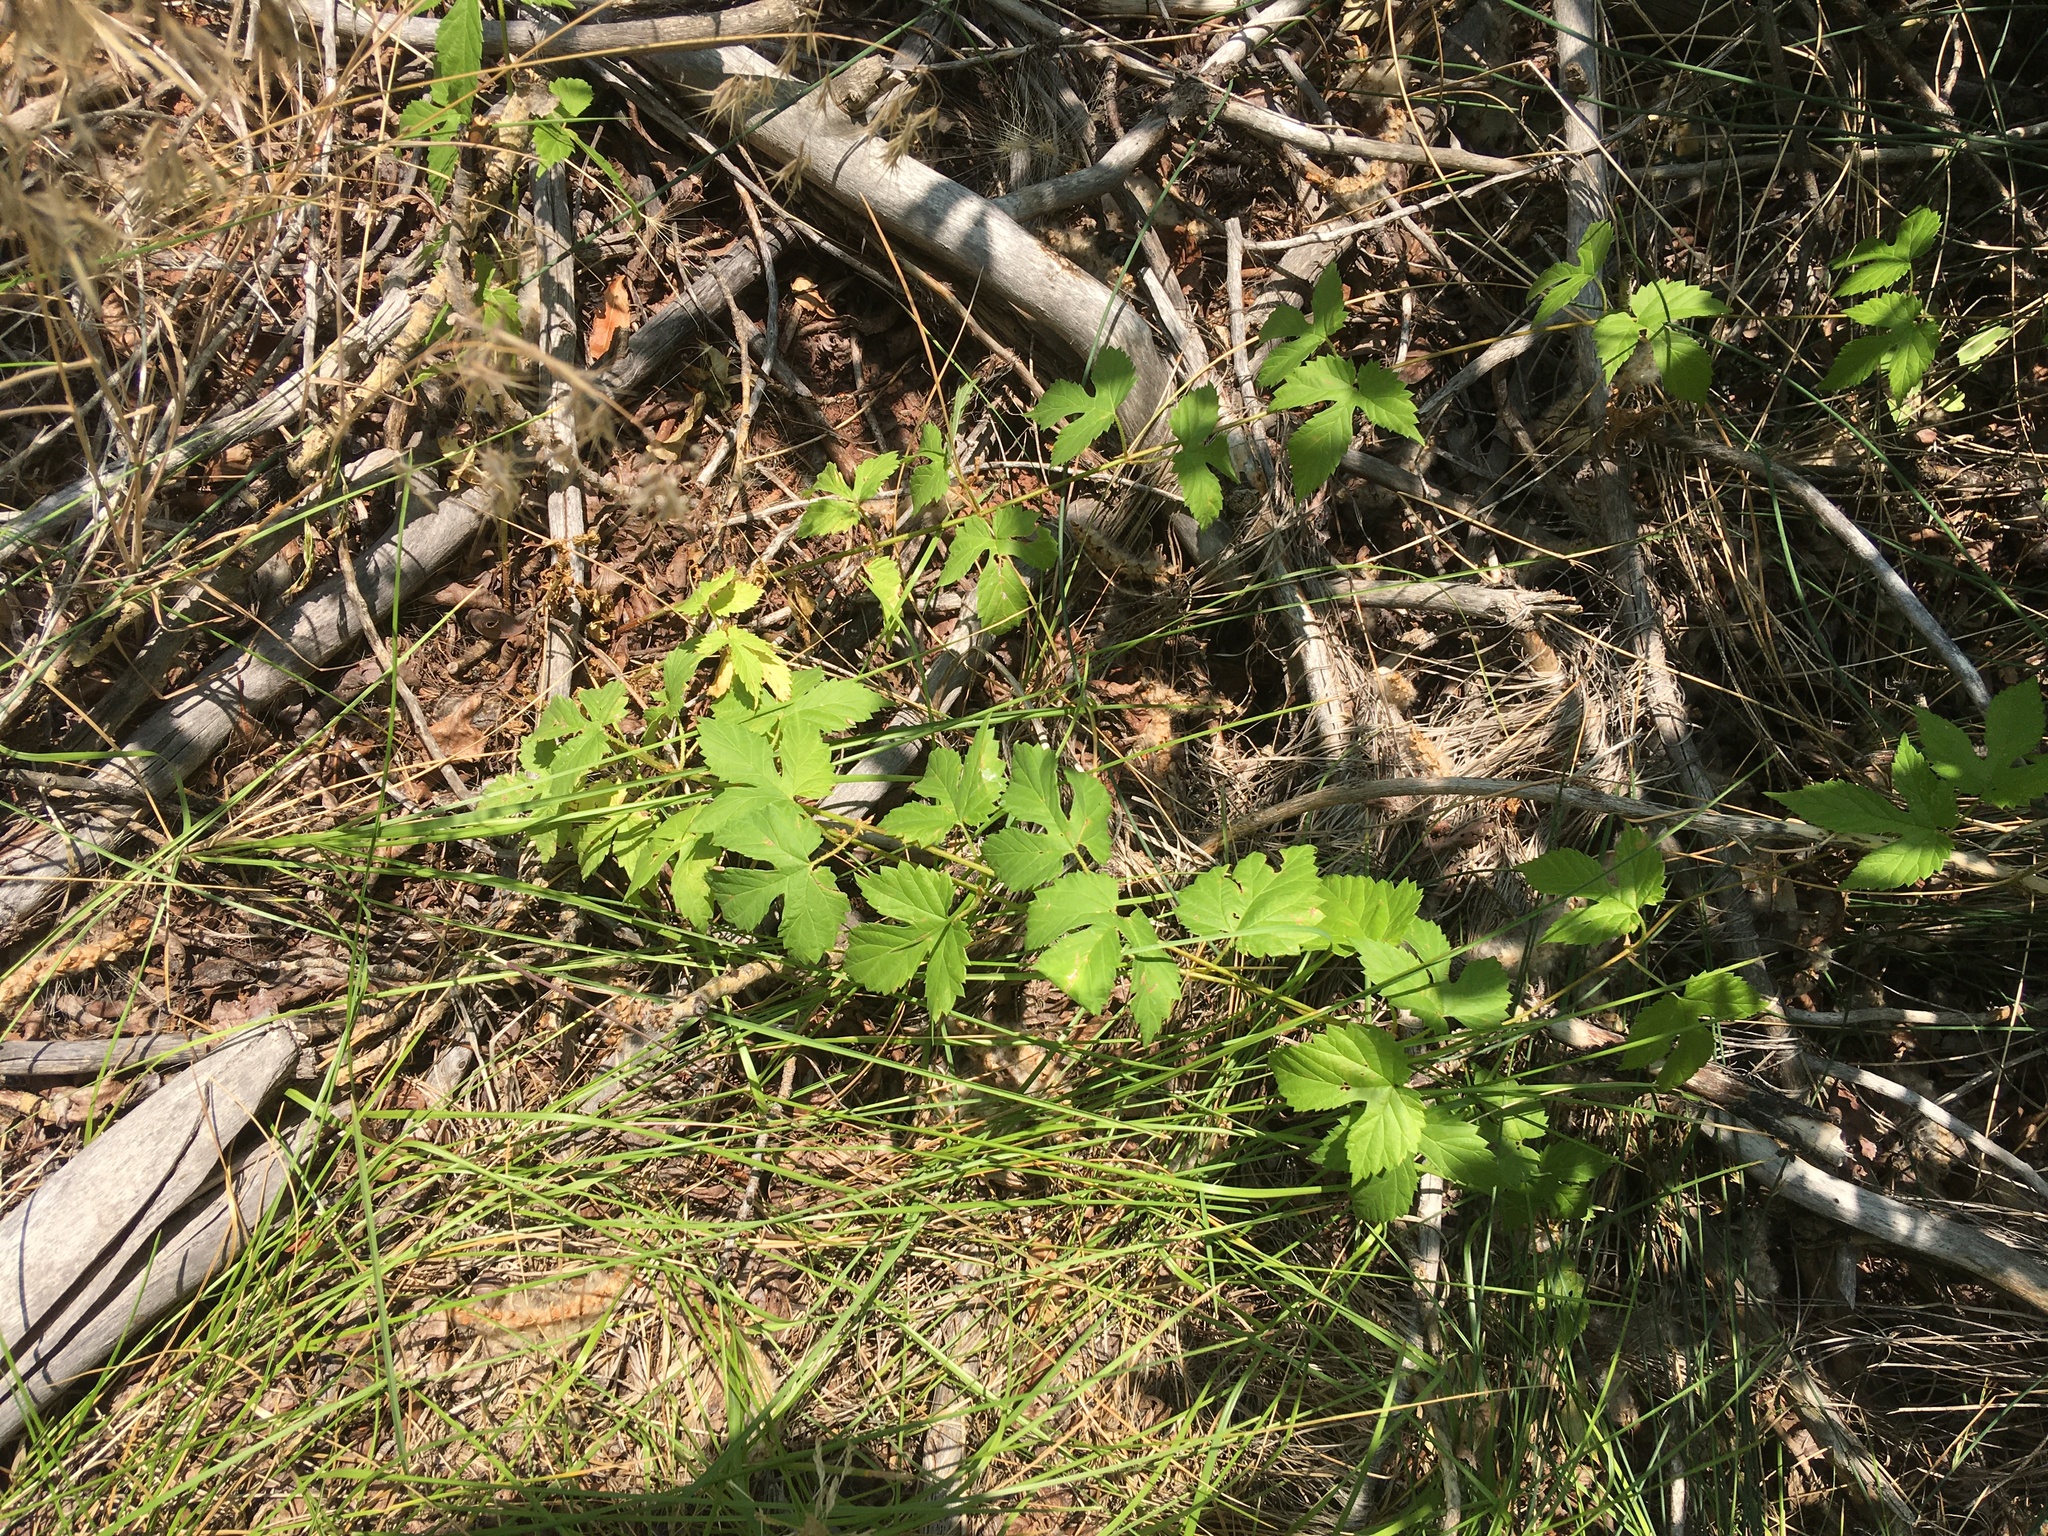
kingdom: Plantae
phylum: Tracheophyta
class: Magnoliopsida
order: Rosales
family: Cannabaceae
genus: Humulus
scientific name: Humulus lupulus
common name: Hop
